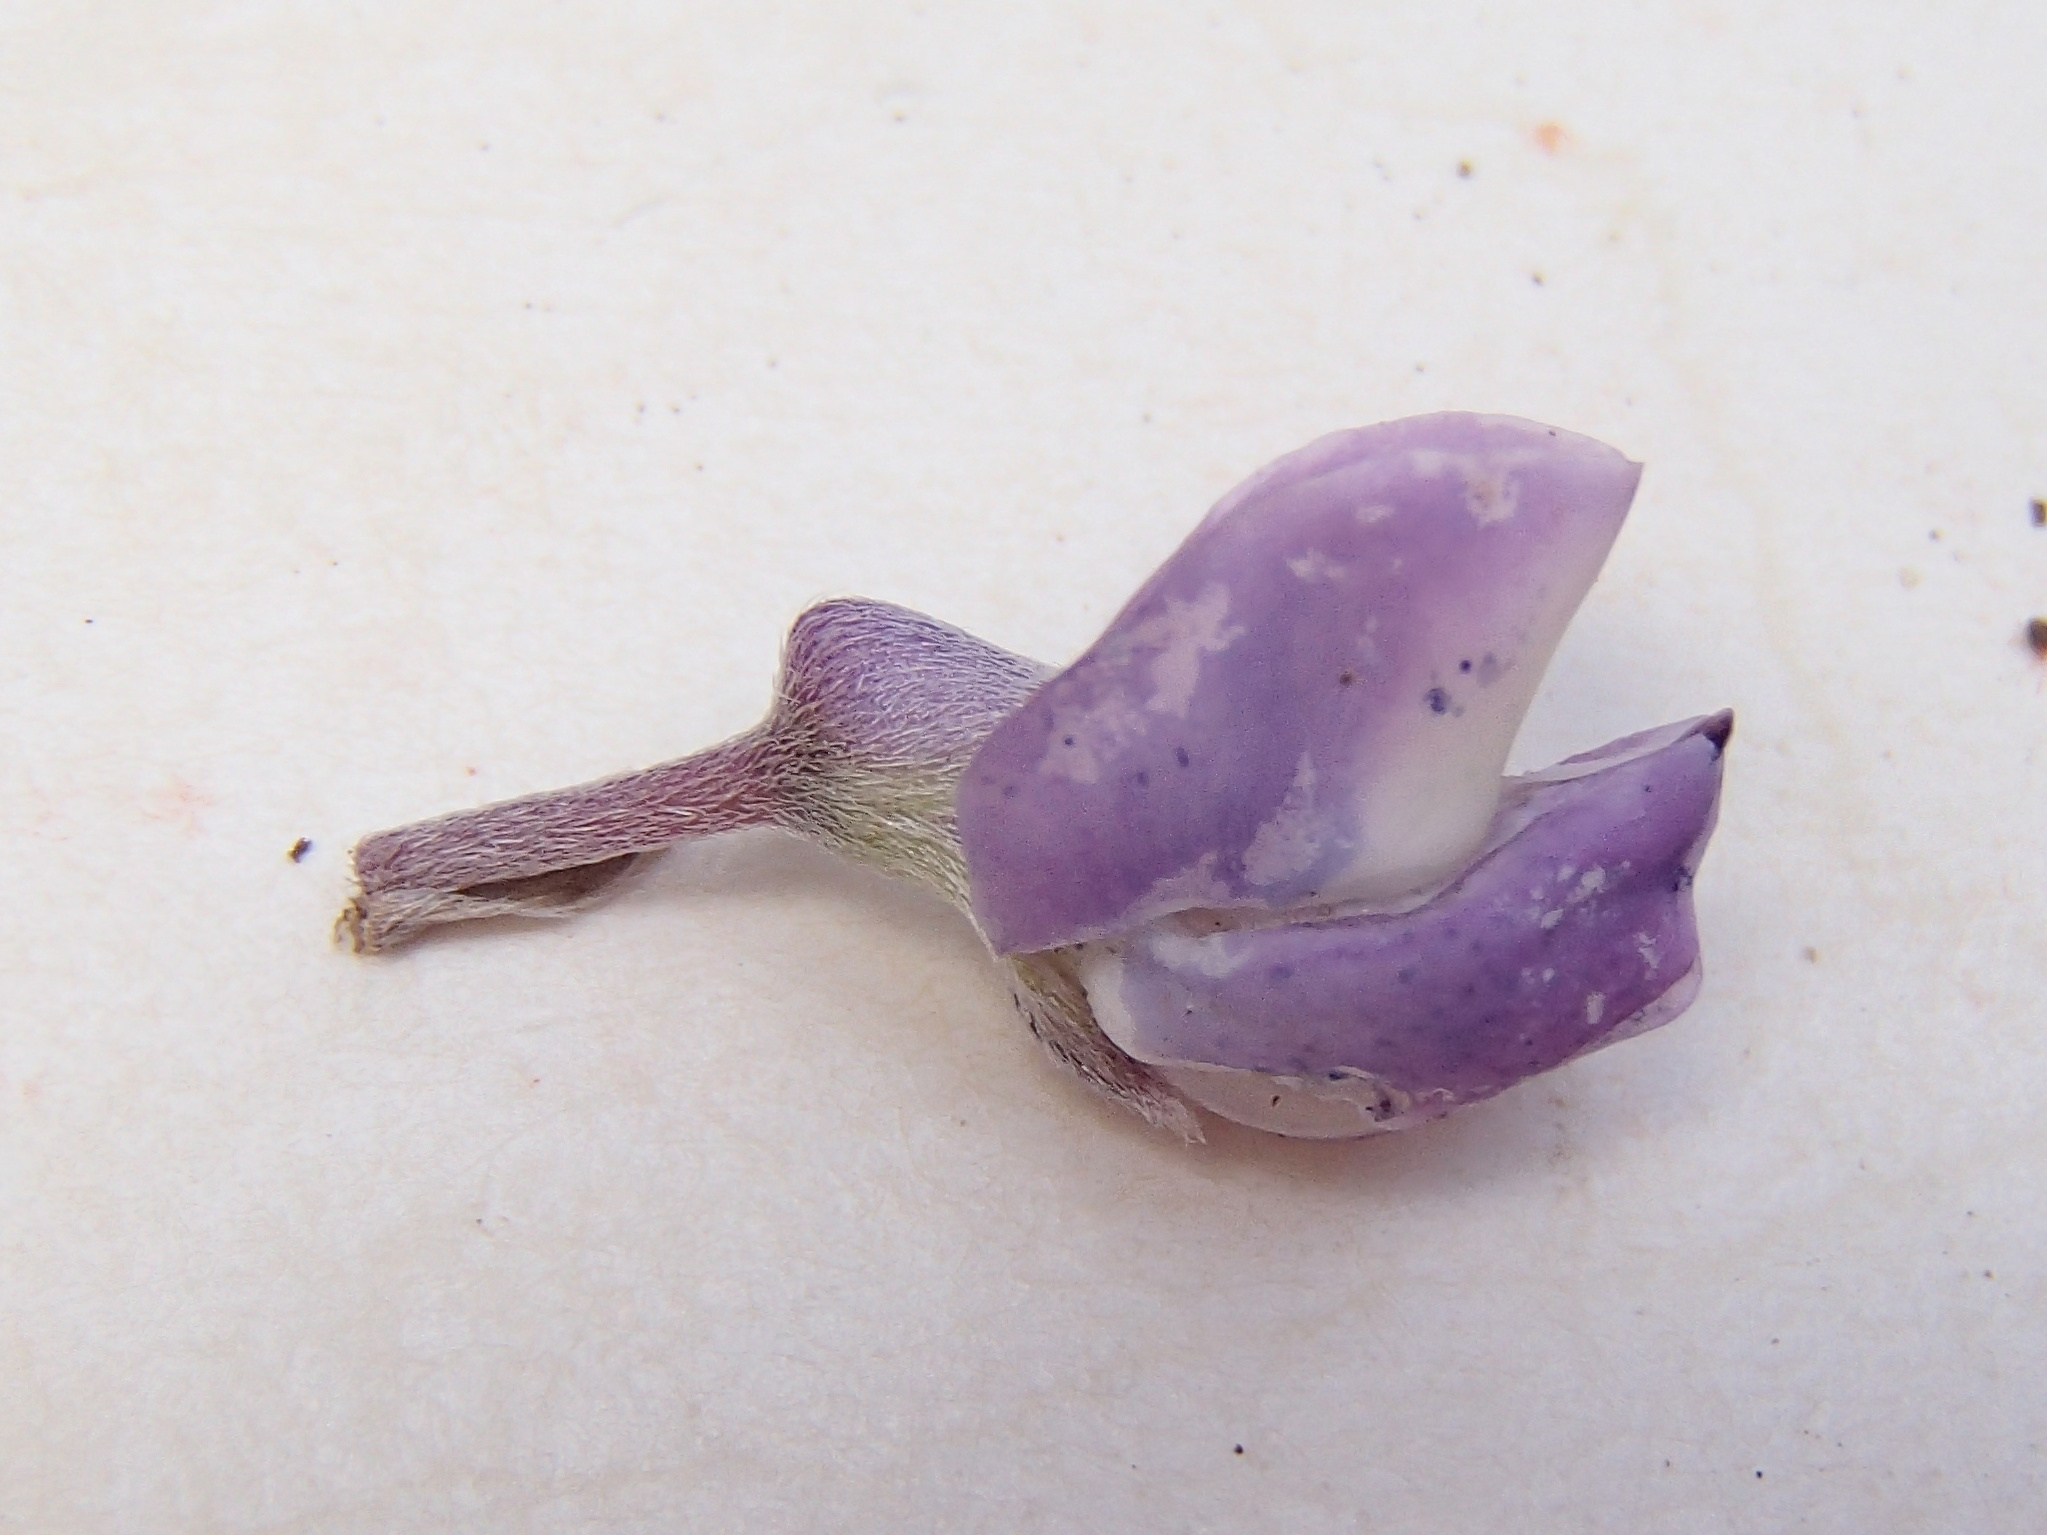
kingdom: Plantae
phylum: Tracheophyta
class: Magnoliopsida
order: Fabales
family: Fabaceae
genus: Lupinus
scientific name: Lupinus arbustus
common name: Montana lupine
